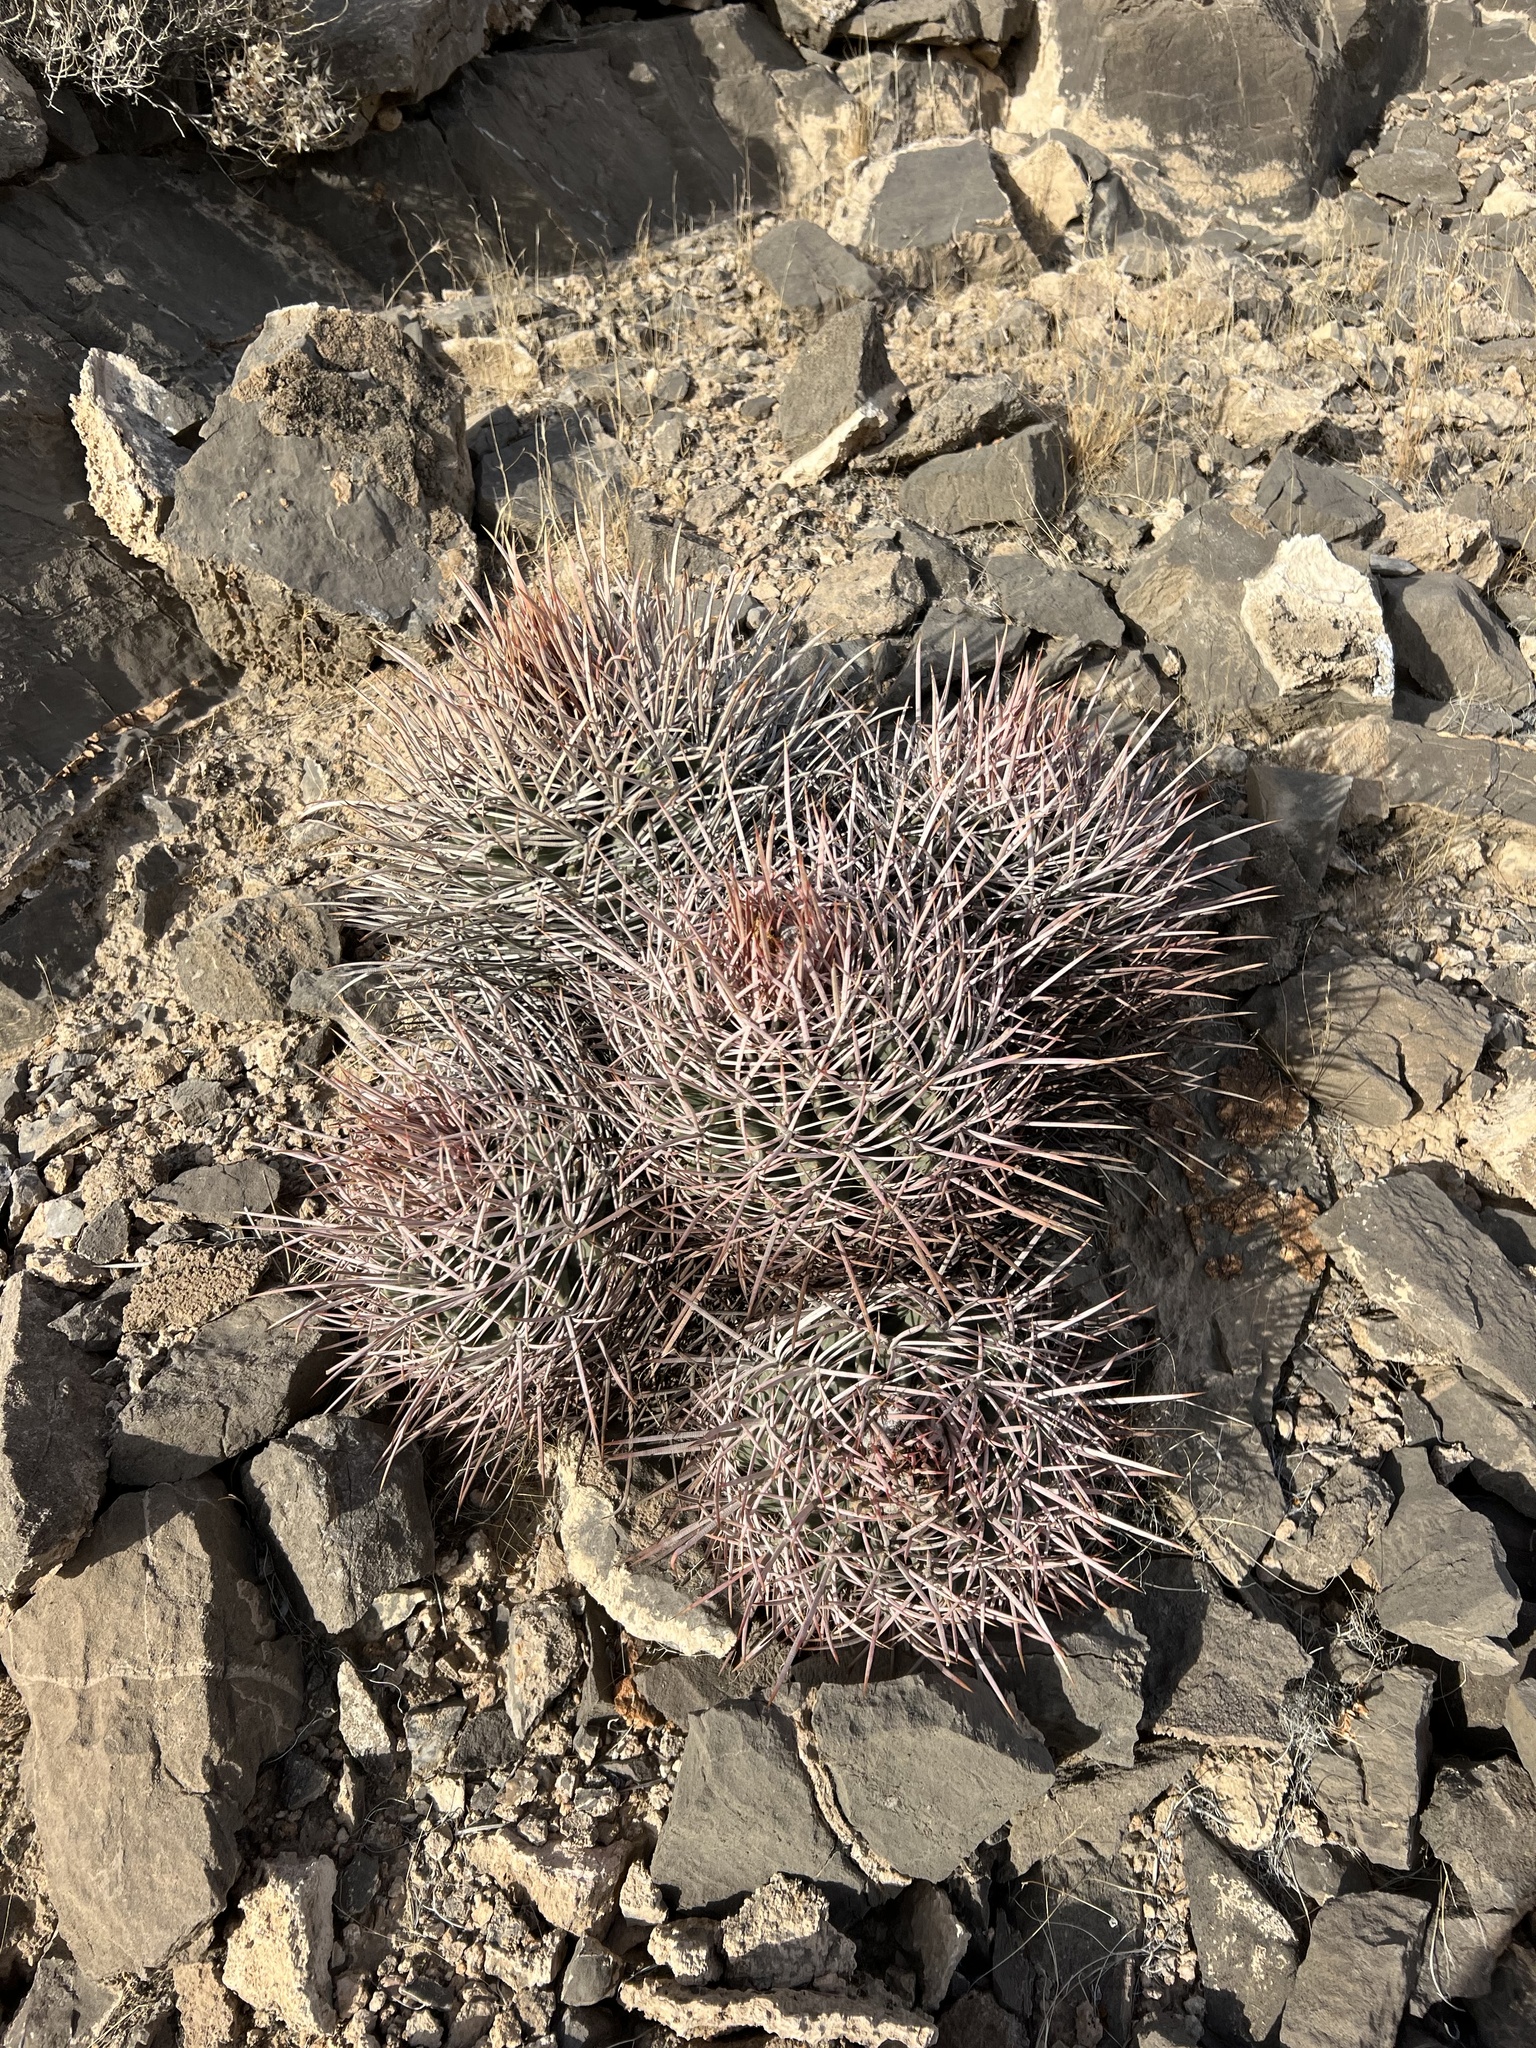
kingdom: Plantae
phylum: Tracheophyta
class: Magnoliopsida
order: Caryophyllales
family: Cactaceae
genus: Echinocactus
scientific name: Echinocactus polycephalus
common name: Cottontop cactus
